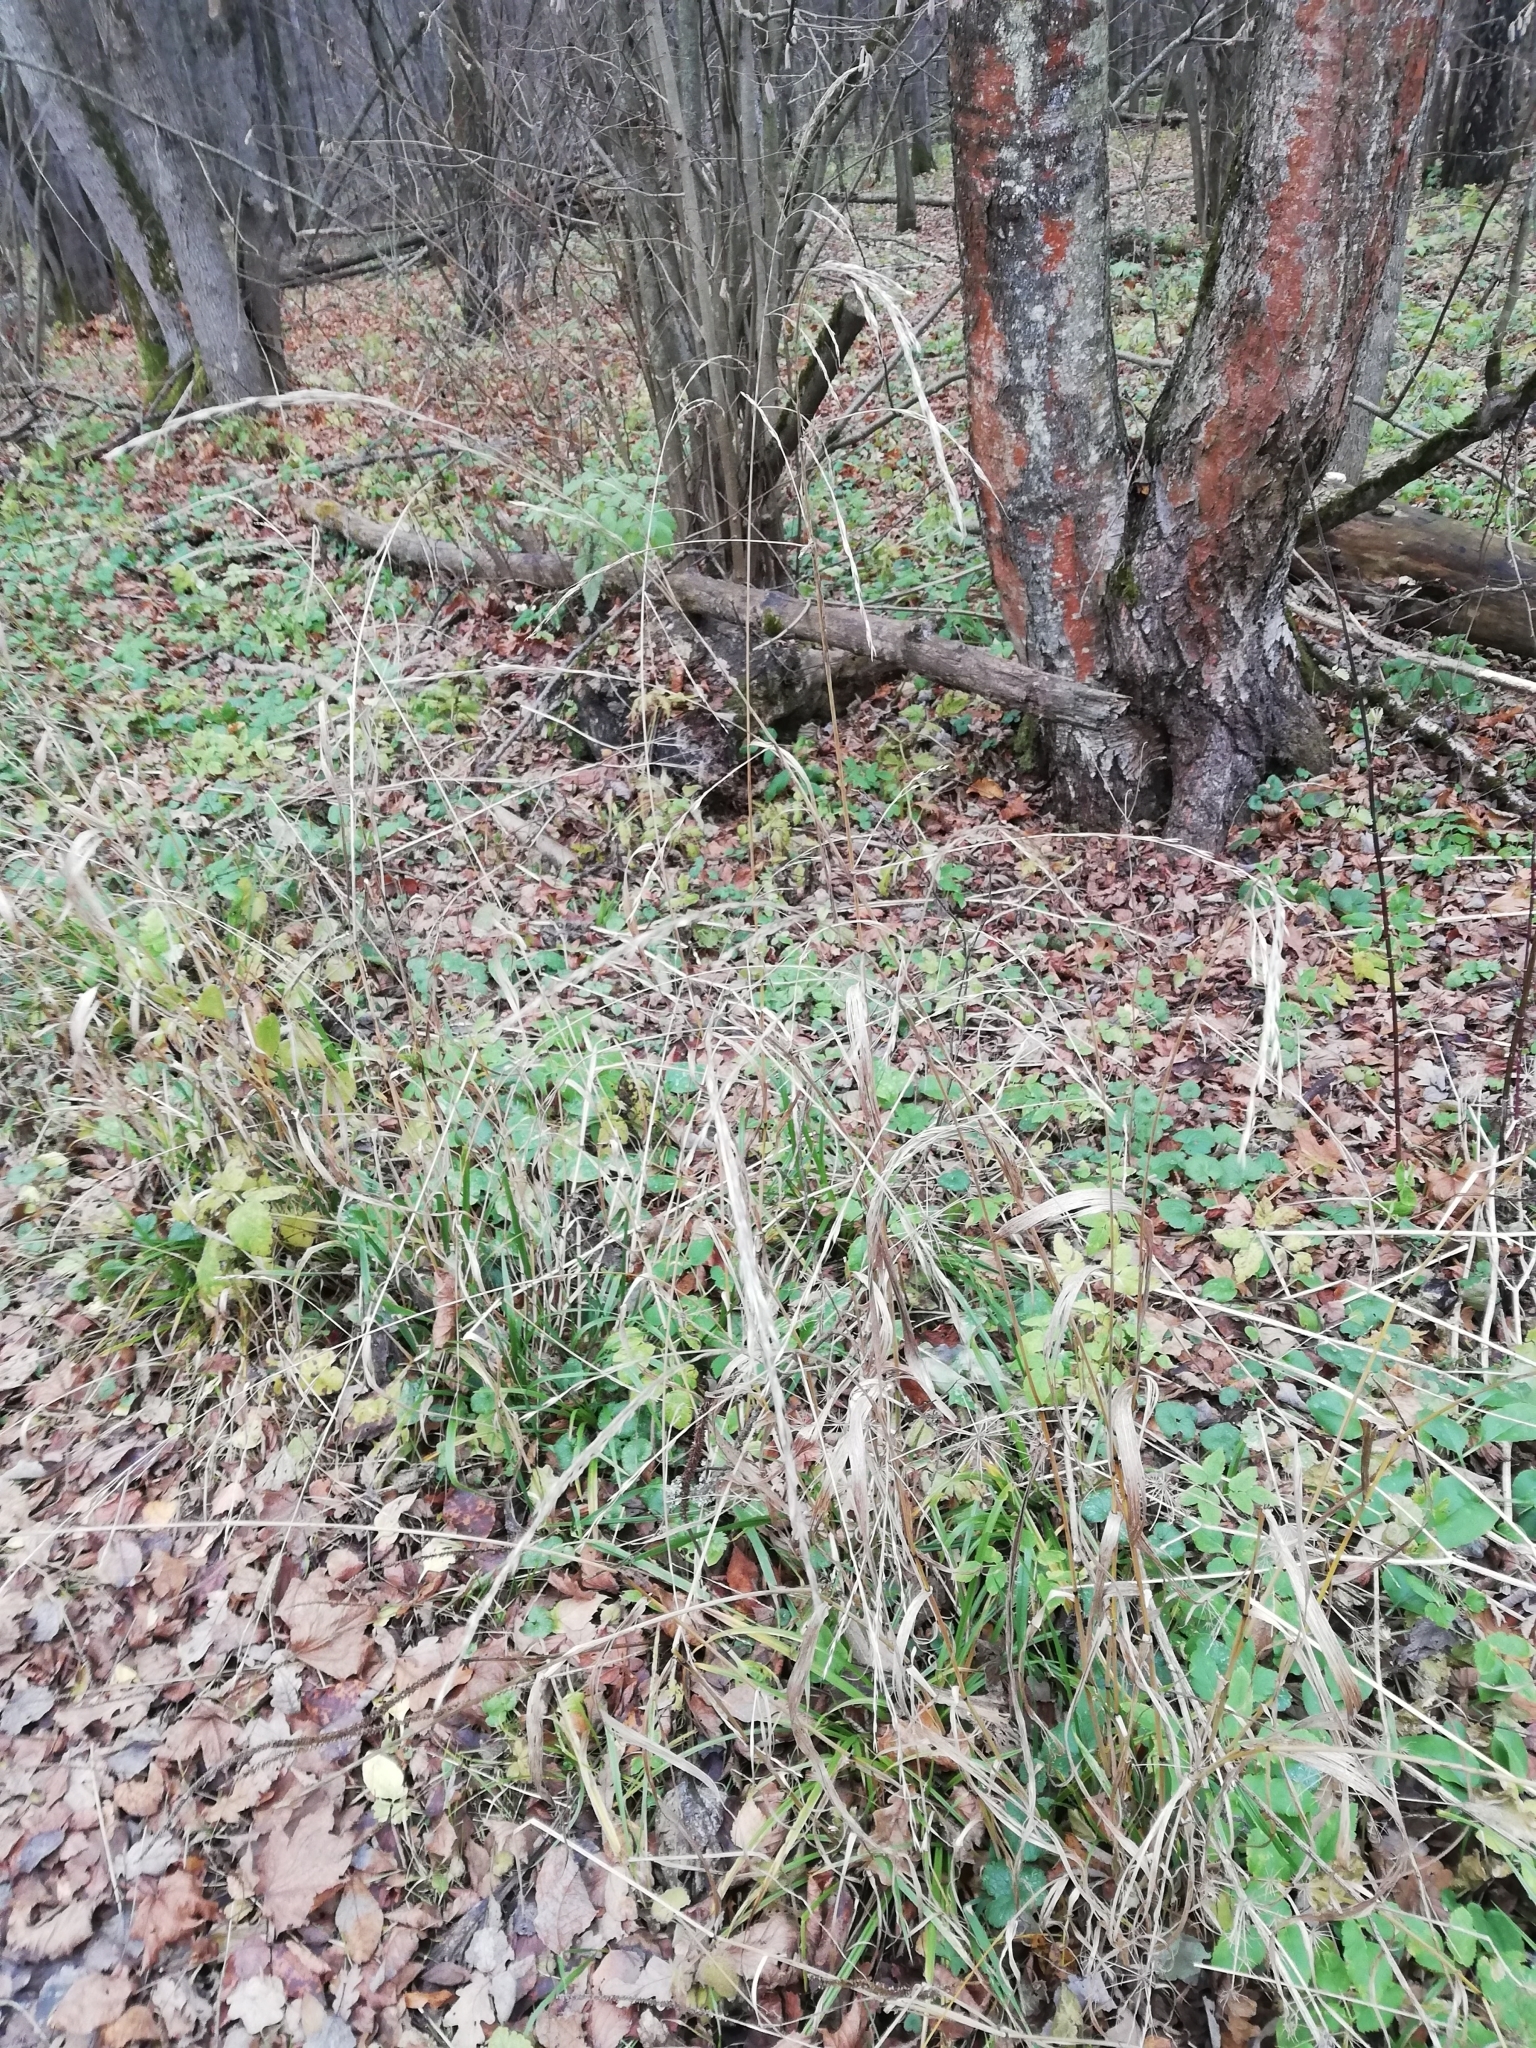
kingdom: Plantae
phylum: Tracheophyta
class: Liliopsida
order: Poales
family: Poaceae
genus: Lolium
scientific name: Lolium giganteum
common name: Giant fescue
